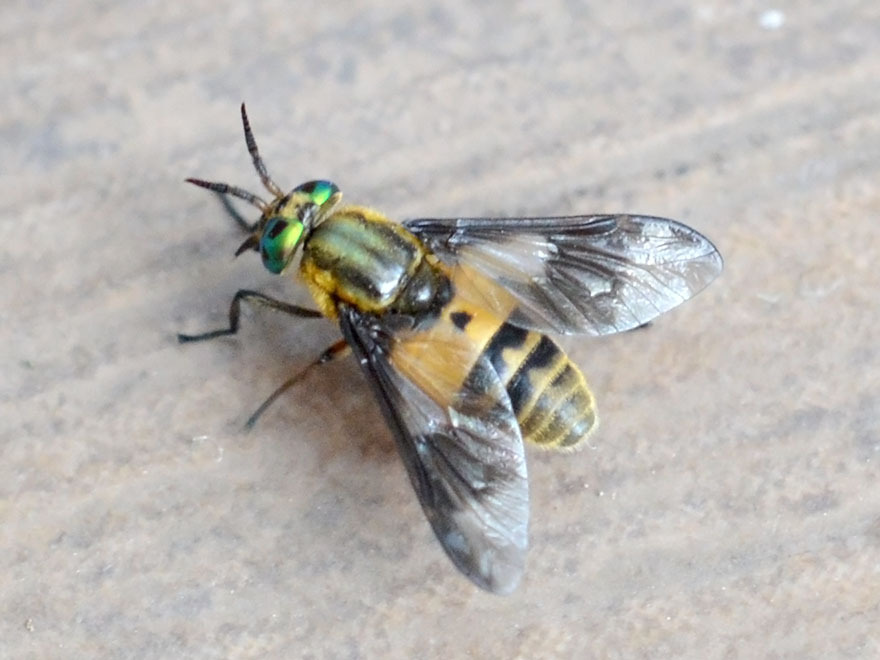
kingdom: Animalia
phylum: Arthropoda
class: Insecta
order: Diptera
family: Tabanidae
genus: Chrysops
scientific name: Chrysops viduatus
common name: Square-spot deerfly
